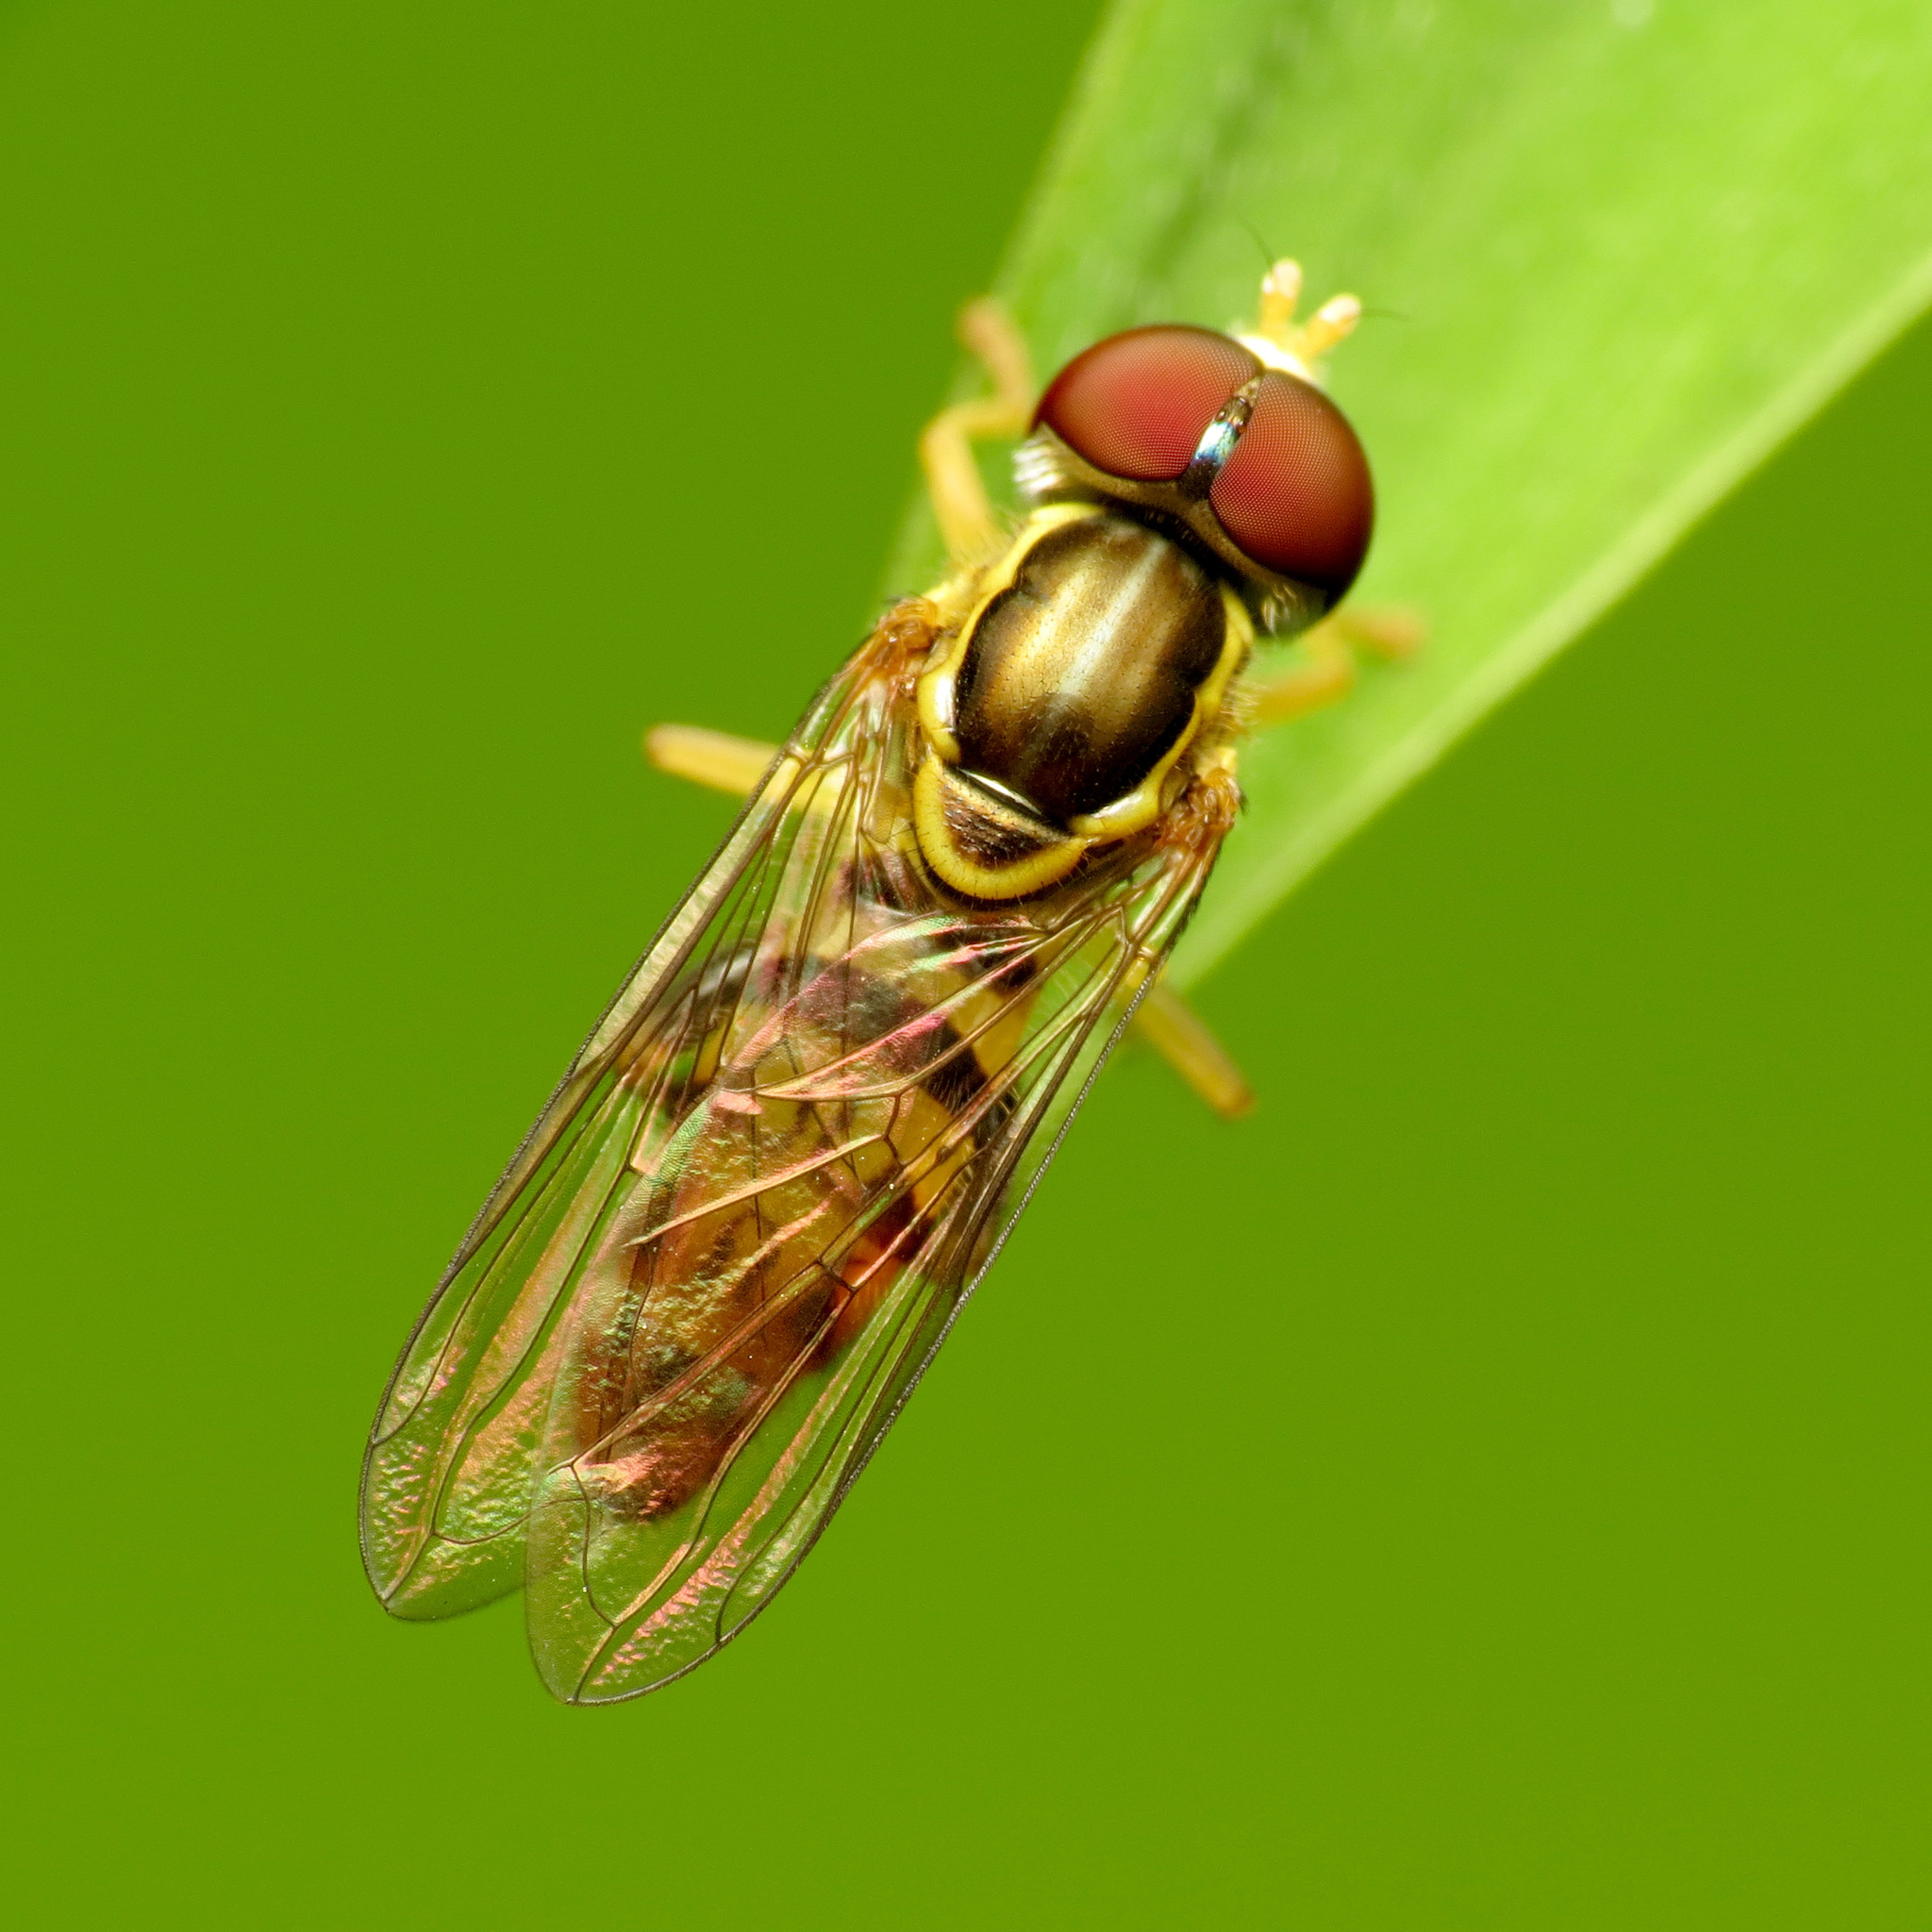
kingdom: Animalia
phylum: Arthropoda
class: Insecta
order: Diptera
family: Syrphidae
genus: Toxomerus
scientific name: Toxomerus geminatus
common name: Eastern calligrapher
